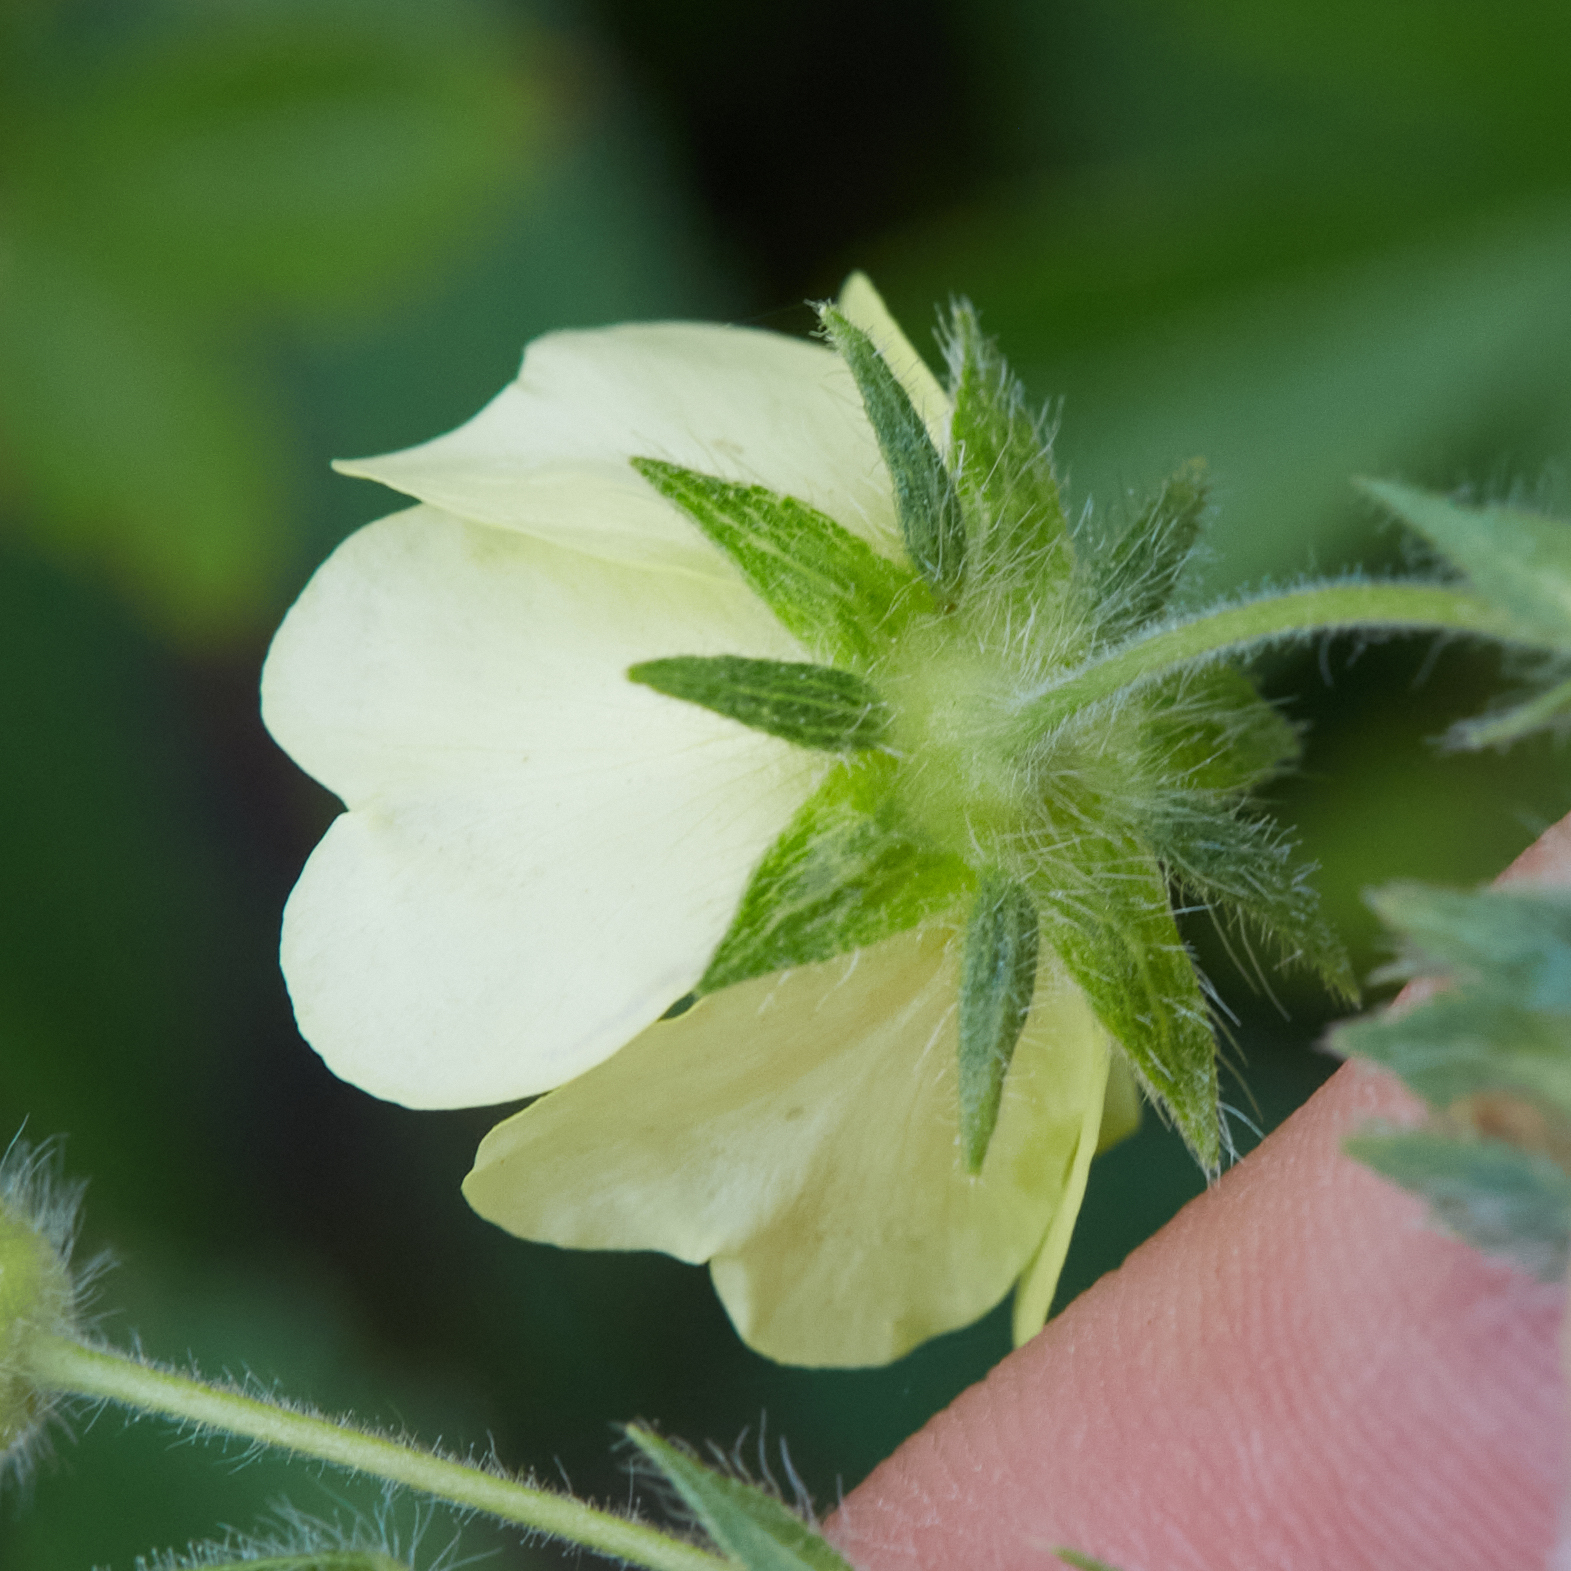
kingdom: Plantae
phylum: Tracheophyta
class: Magnoliopsida
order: Rosales
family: Rosaceae
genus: Potentilla
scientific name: Potentilla recta
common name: Sulphur cinquefoil
